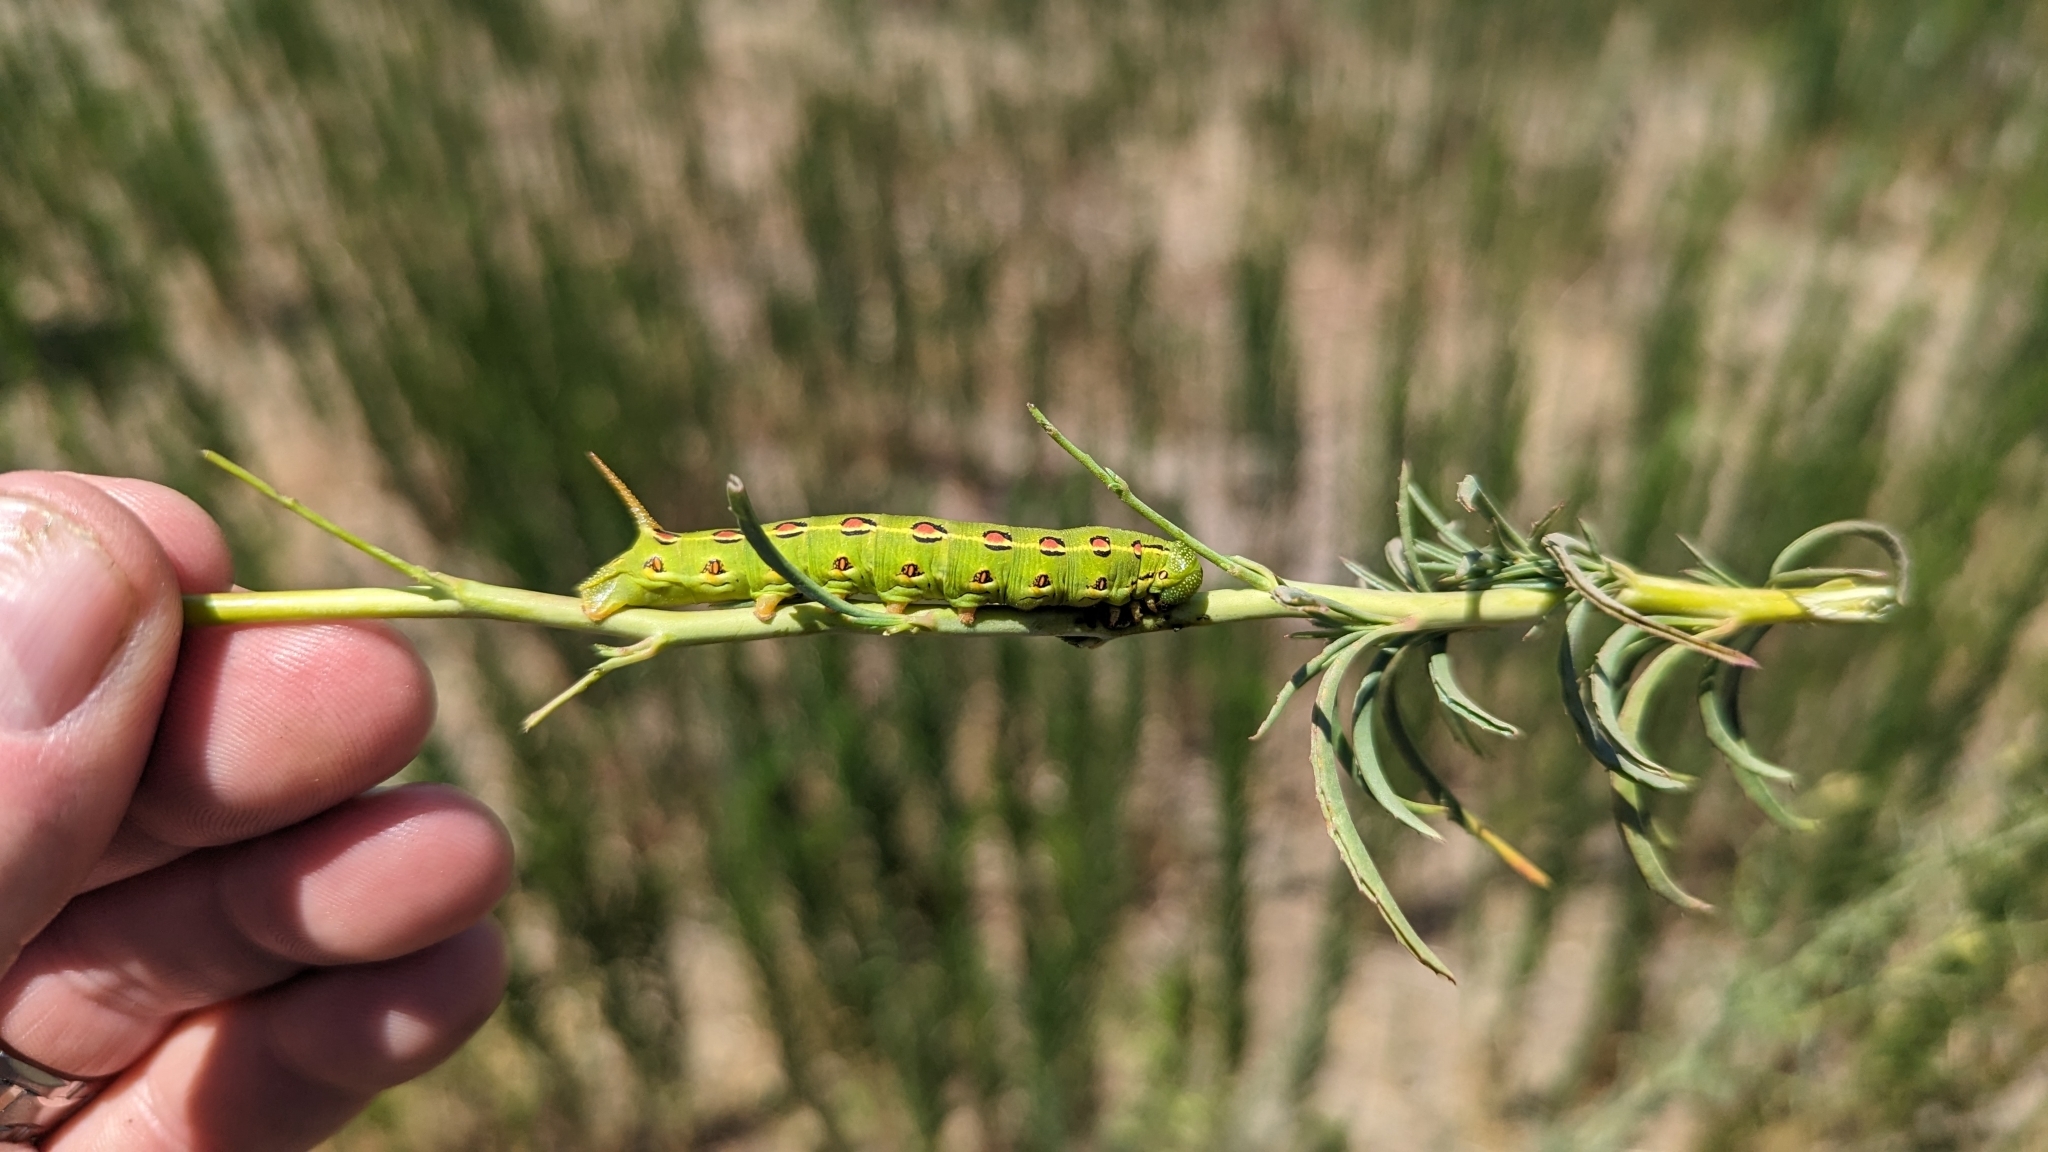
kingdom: Animalia
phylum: Arthropoda
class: Insecta
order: Lepidoptera
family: Sphingidae
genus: Hyles
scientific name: Hyles lineata
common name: White-lined sphinx
